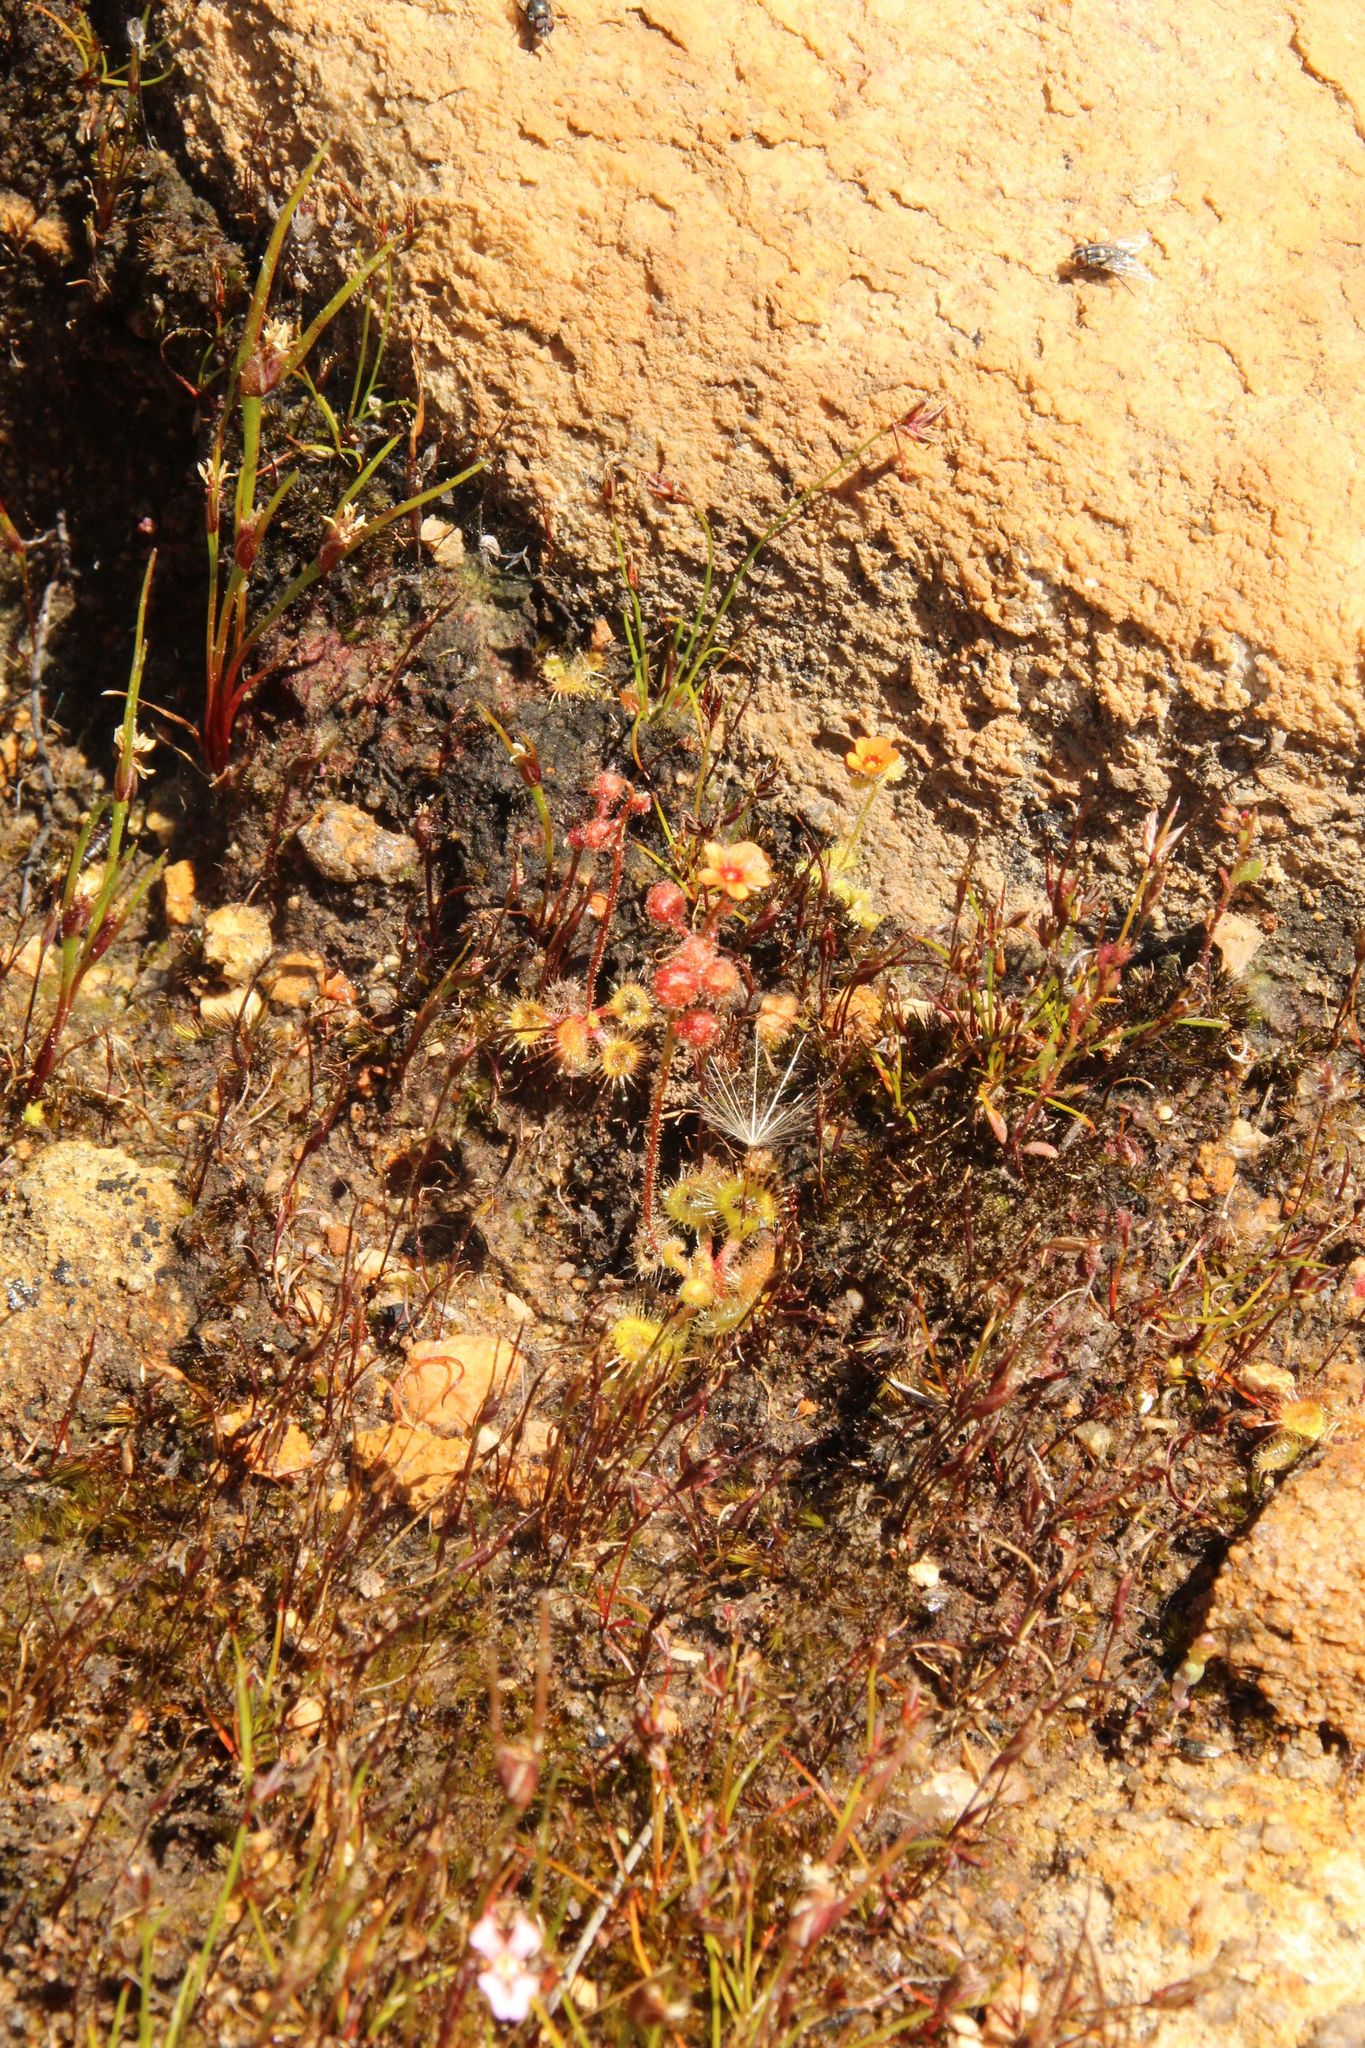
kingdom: Plantae
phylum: Tracheophyta
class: Magnoliopsida
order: Caryophyllales
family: Droseraceae
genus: Drosera
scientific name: Drosera glanduligera
